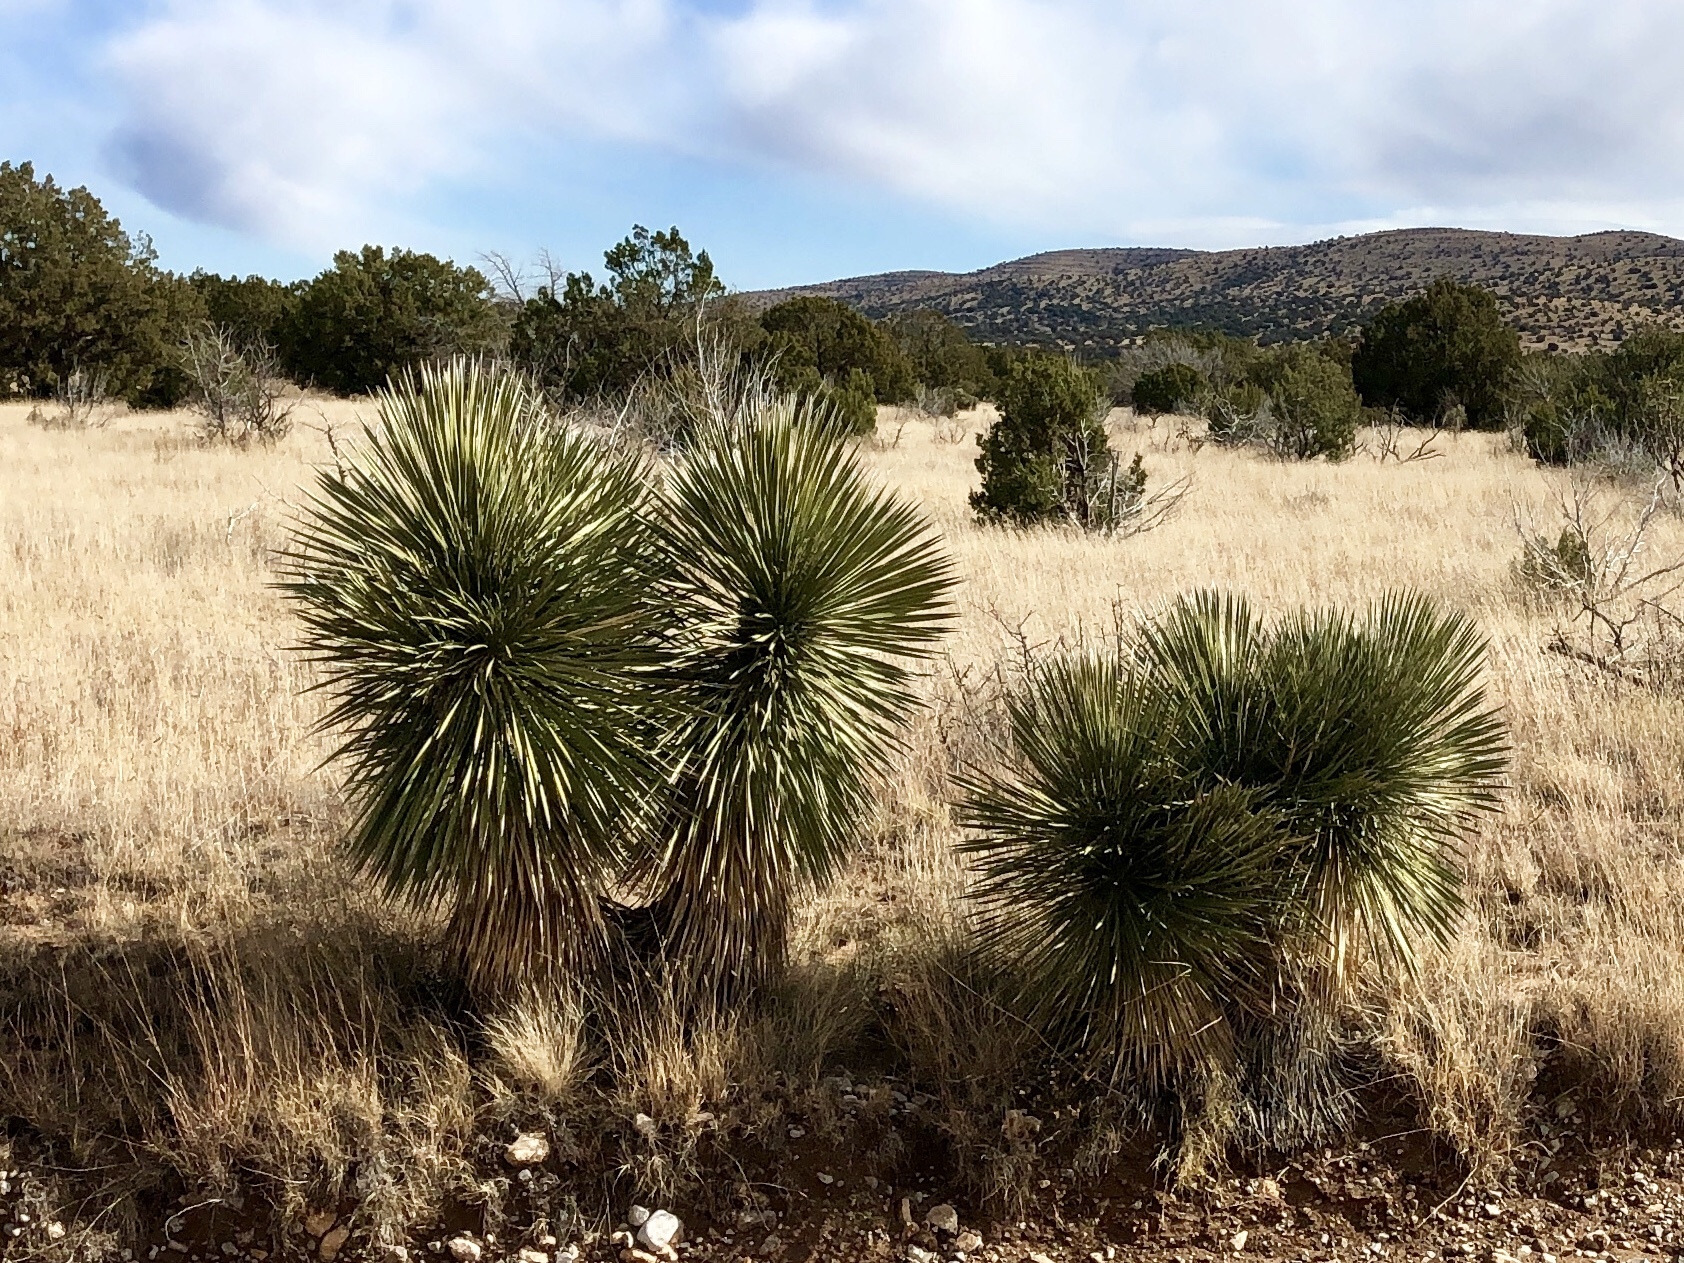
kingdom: Plantae
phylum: Tracheophyta
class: Liliopsida
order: Asparagales
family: Asparagaceae
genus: Yucca
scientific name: Yucca elata
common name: Palmella
